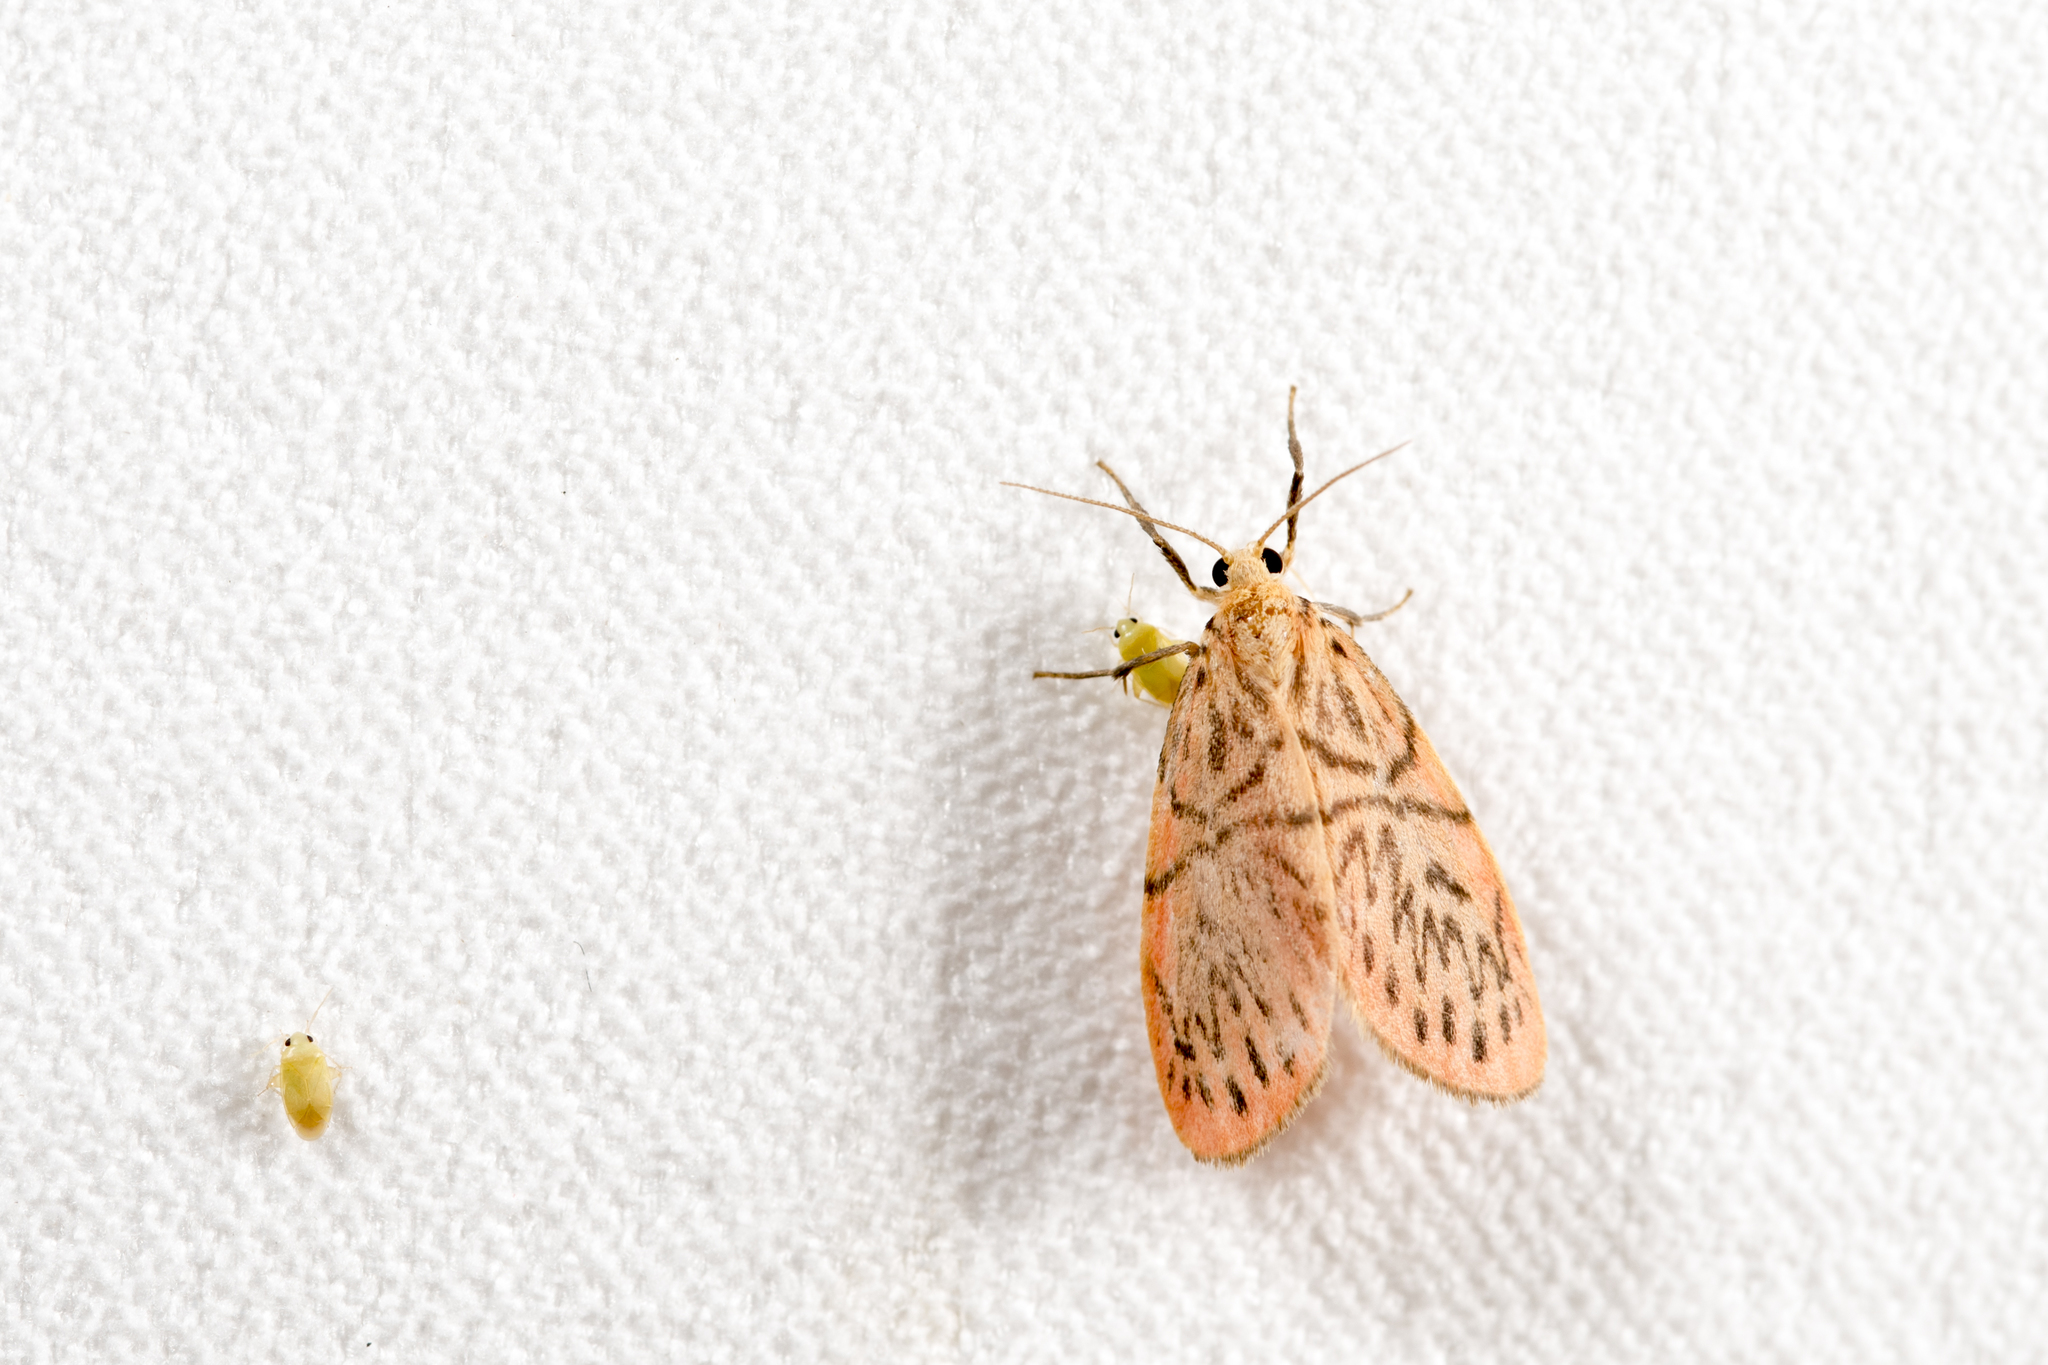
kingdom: Animalia
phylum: Arthropoda
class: Insecta
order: Lepidoptera
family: Erebidae
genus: Sesapa
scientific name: Sesapa koshunica
